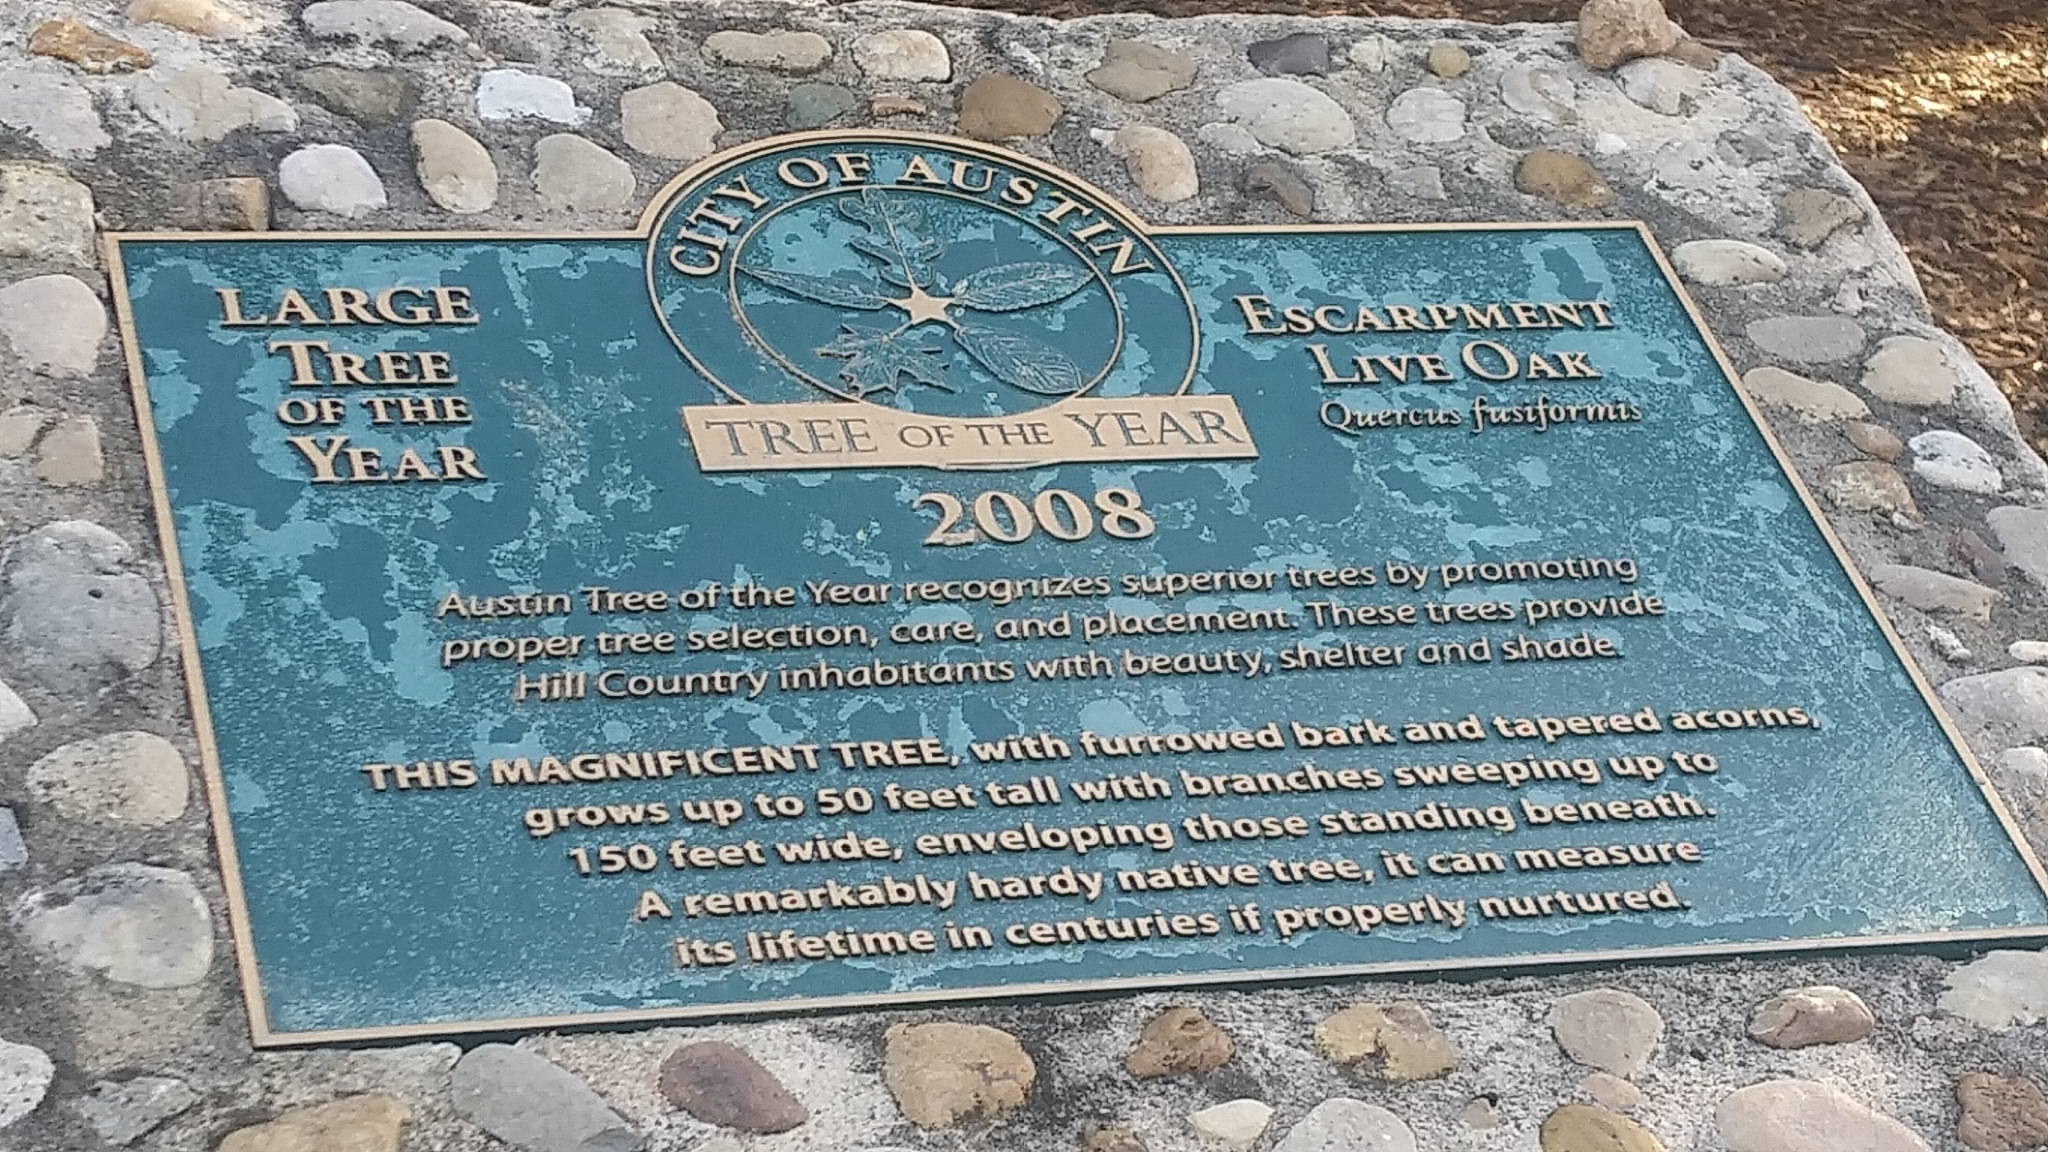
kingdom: Plantae
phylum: Tracheophyta
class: Magnoliopsida
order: Fagales
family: Fagaceae
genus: Quercus
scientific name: Quercus fusiformis
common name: Texas live oak
